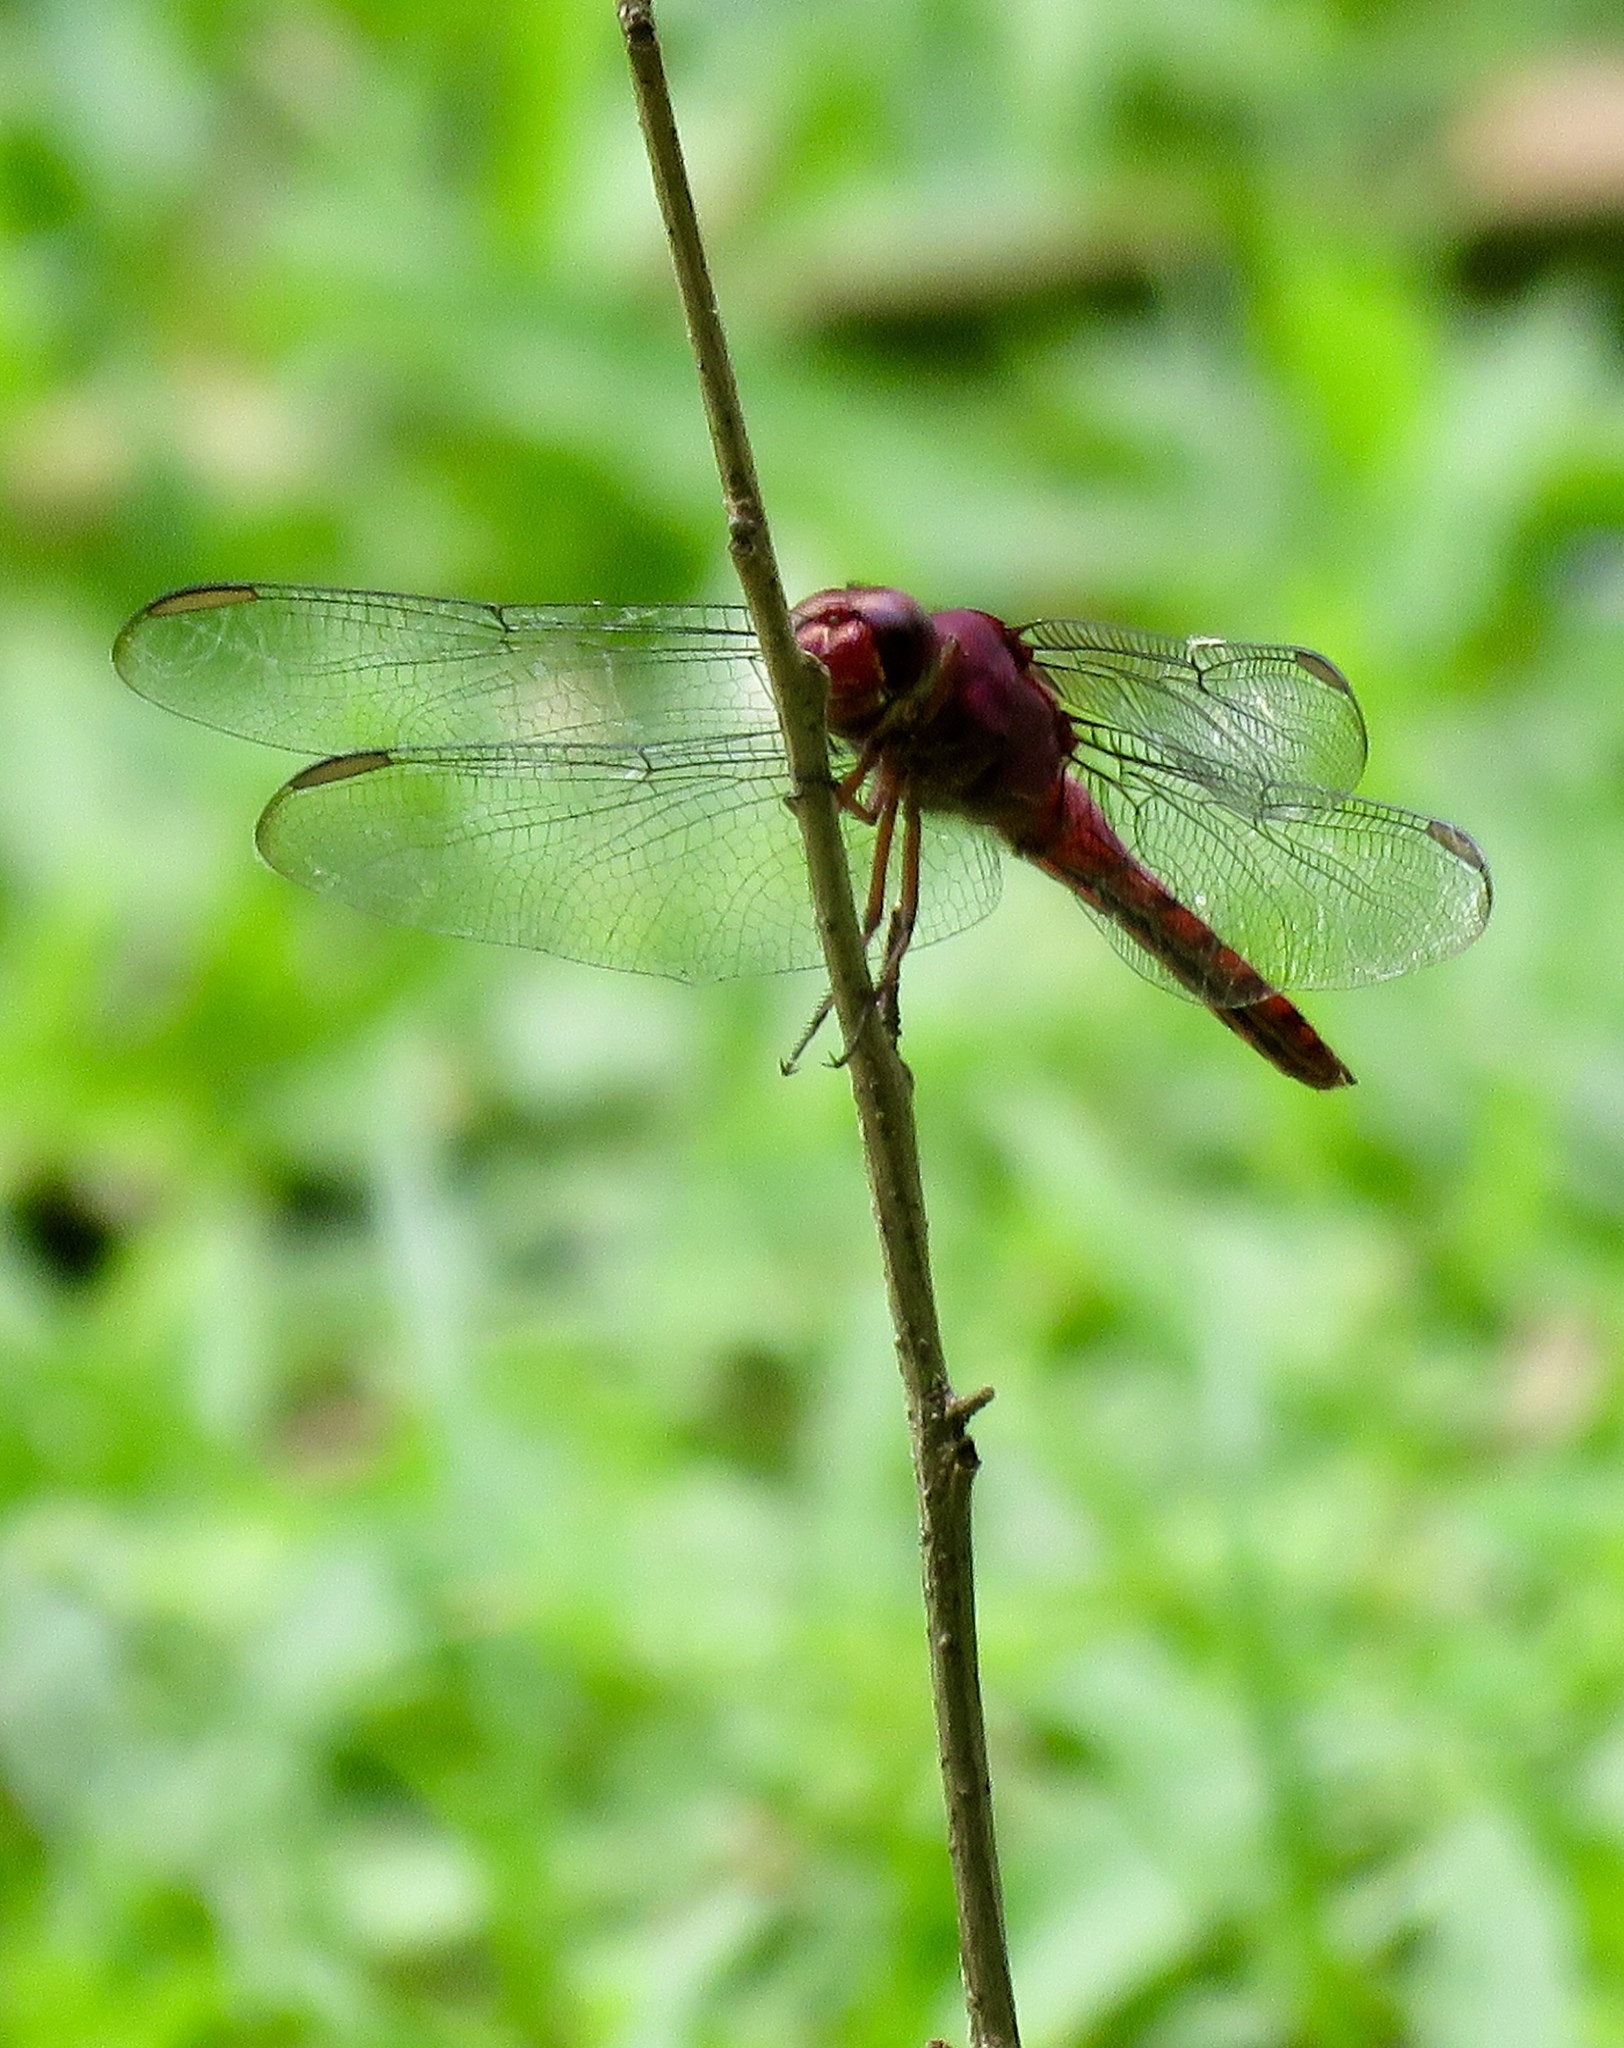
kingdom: Animalia
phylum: Arthropoda
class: Insecta
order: Odonata
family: Libellulidae
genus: Orthemis
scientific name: Orthemis discolor
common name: Carmine skimmer
